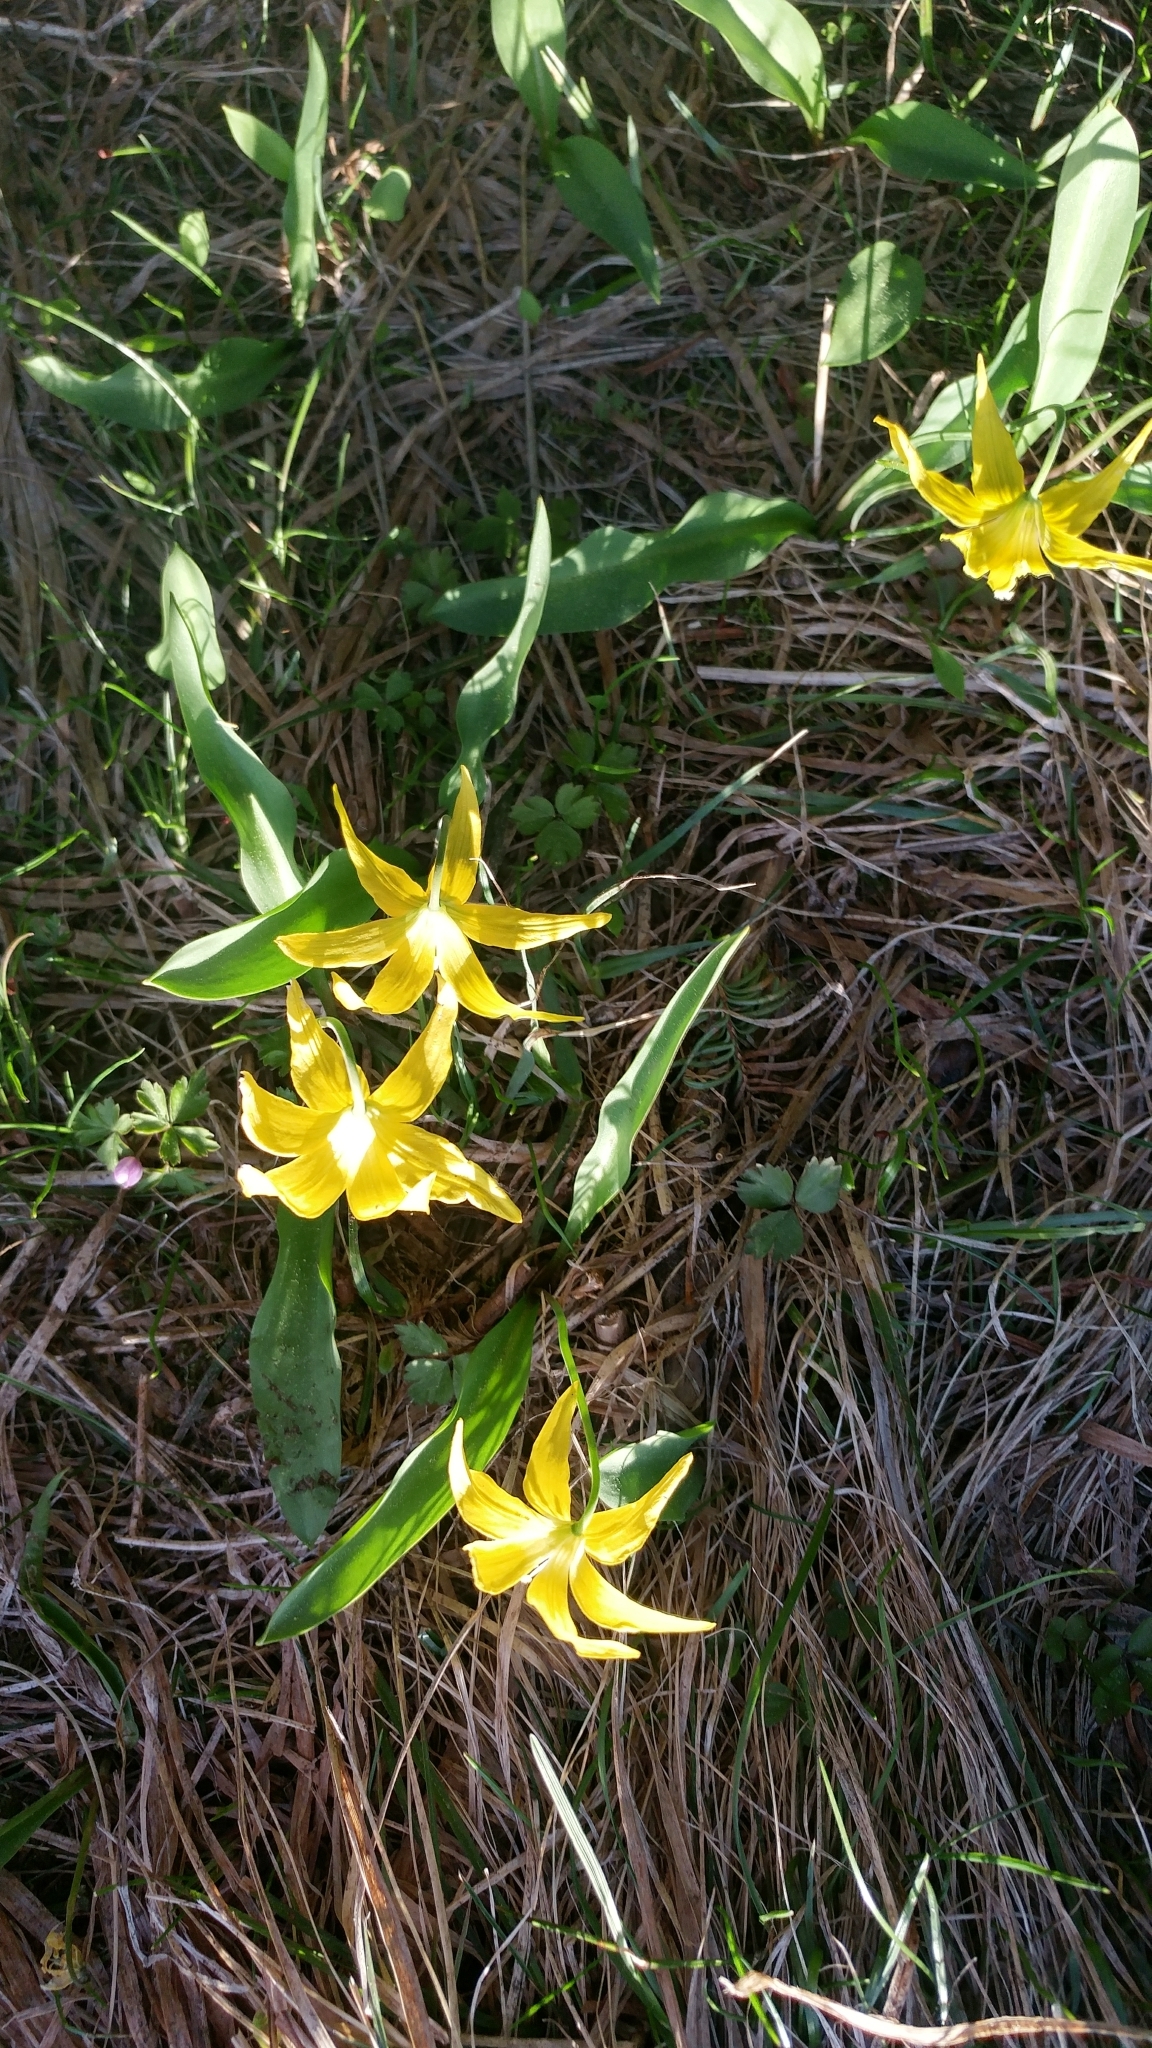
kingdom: Plantae
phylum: Tracheophyta
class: Liliopsida
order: Liliales
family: Liliaceae
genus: Erythronium
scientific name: Erythronium grandiflorum
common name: Avalanche-lily
